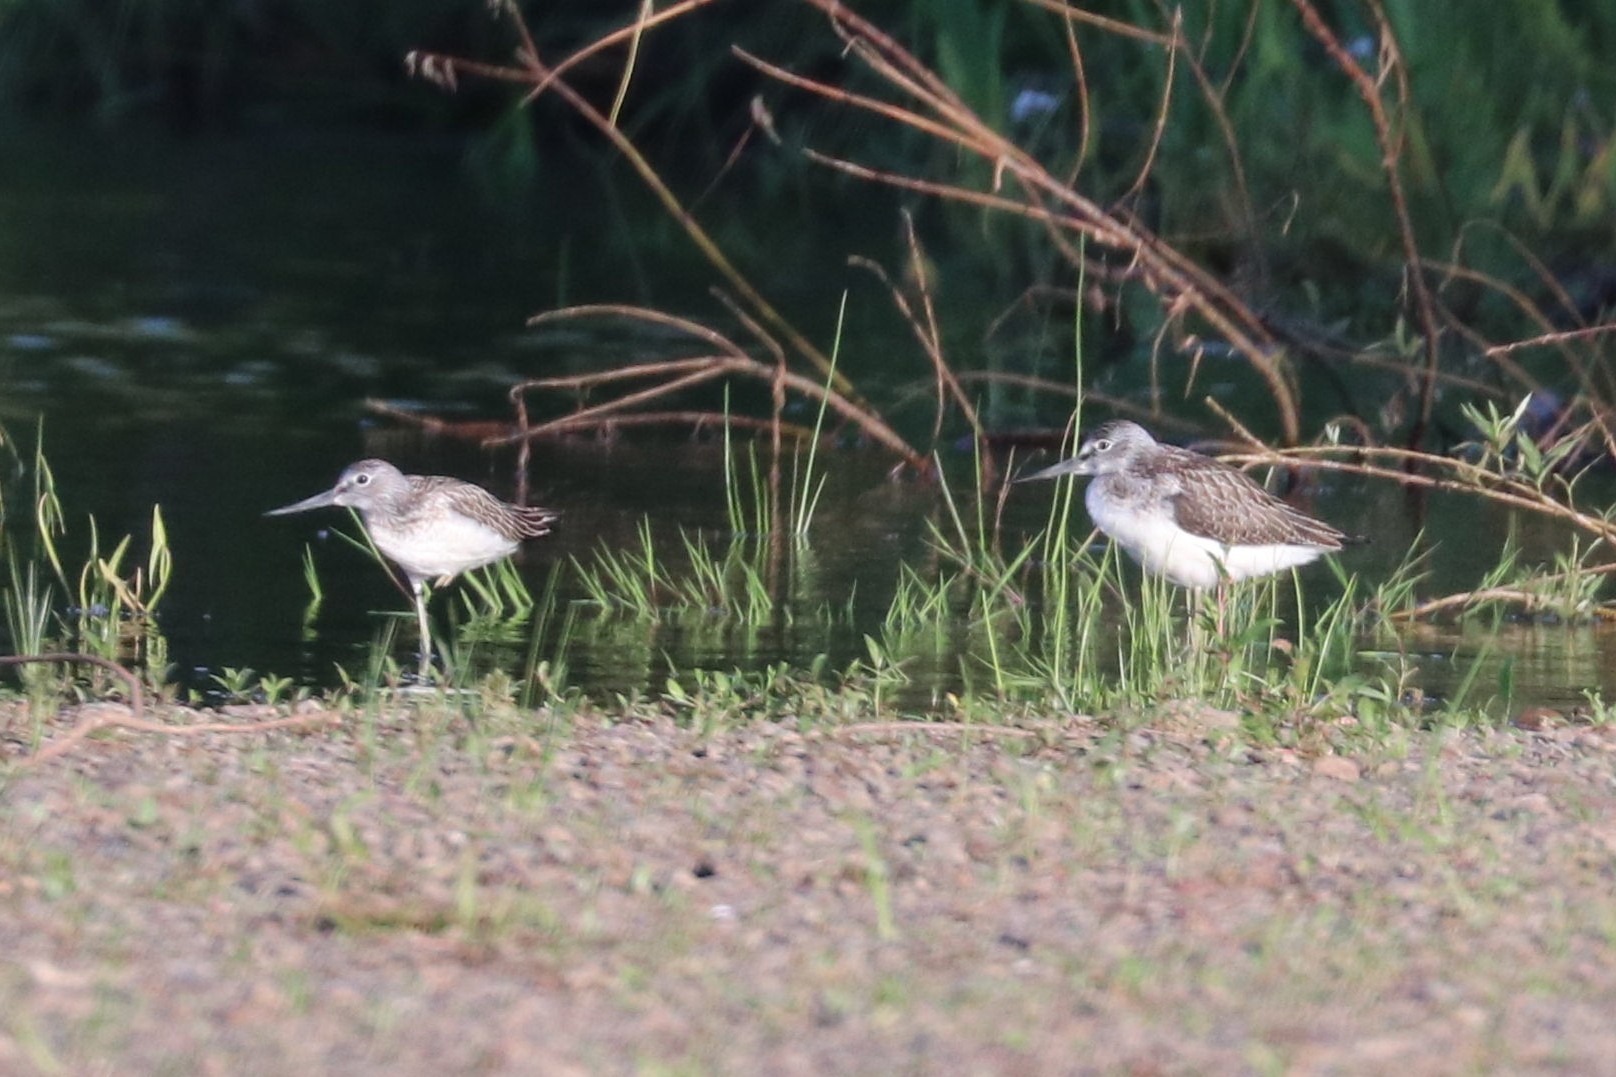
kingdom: Animalia
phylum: Chordata
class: Aves
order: Charadriiformes
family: Scolopacidae
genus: Tringa
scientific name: Tringa nebularia
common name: Common greenshank
